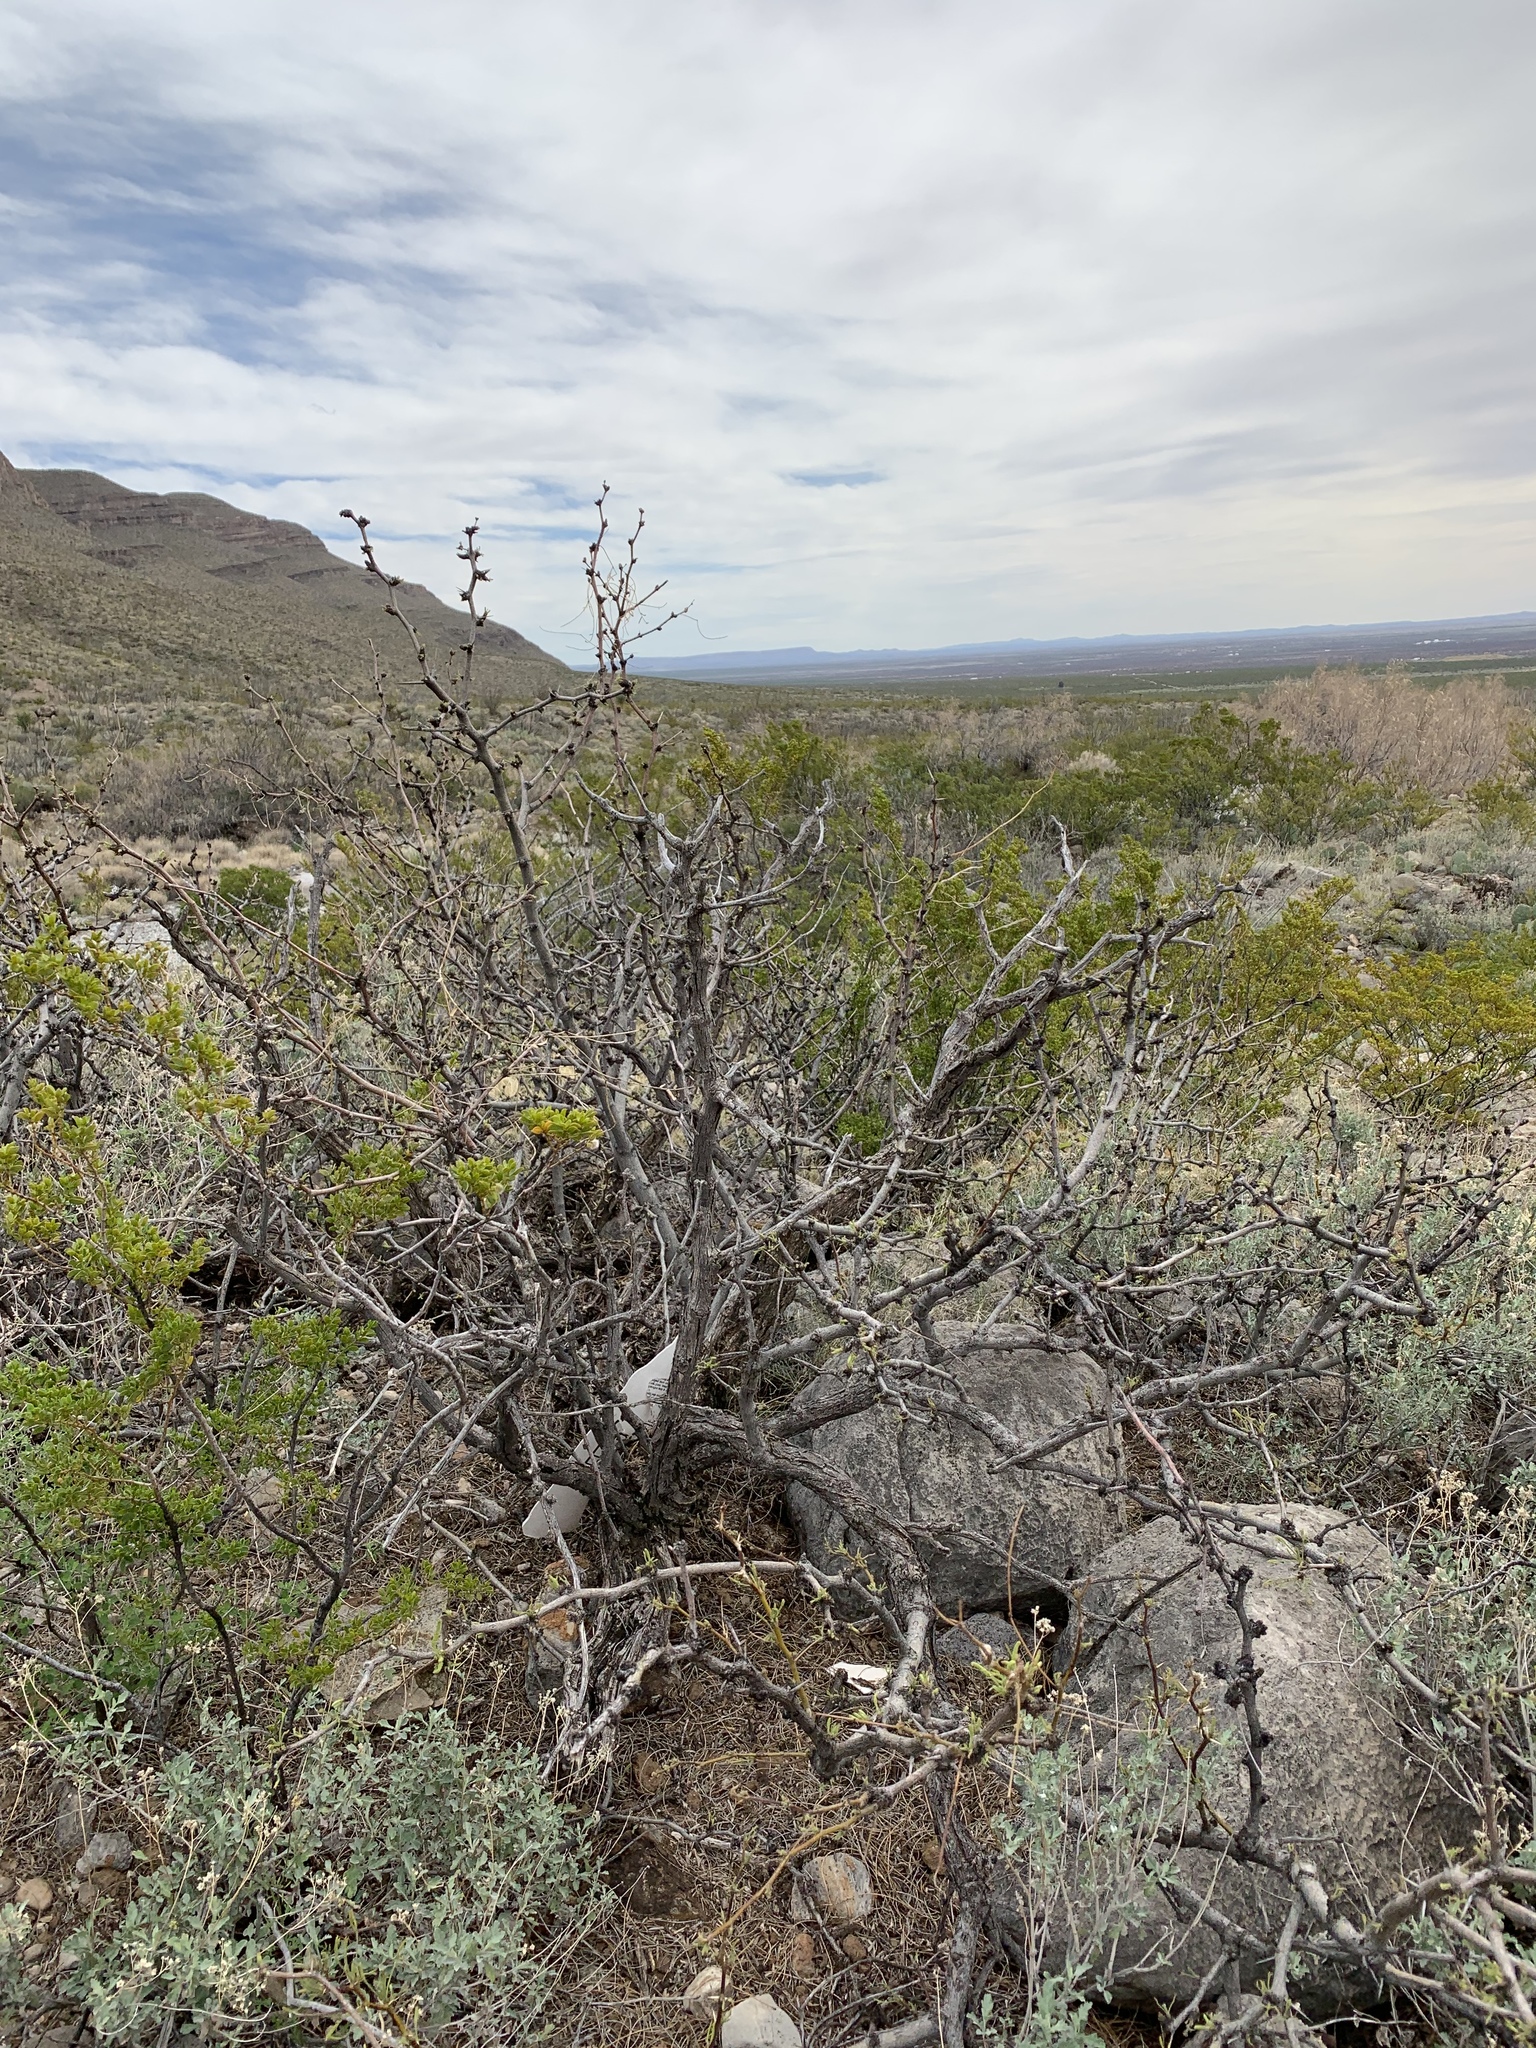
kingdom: Plantae
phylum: Tracheophyta
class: Magnoliopsida
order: Fabales
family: Fabaceae
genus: Prosopis
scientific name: Prosopis glandulosa
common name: Honey mesquite
